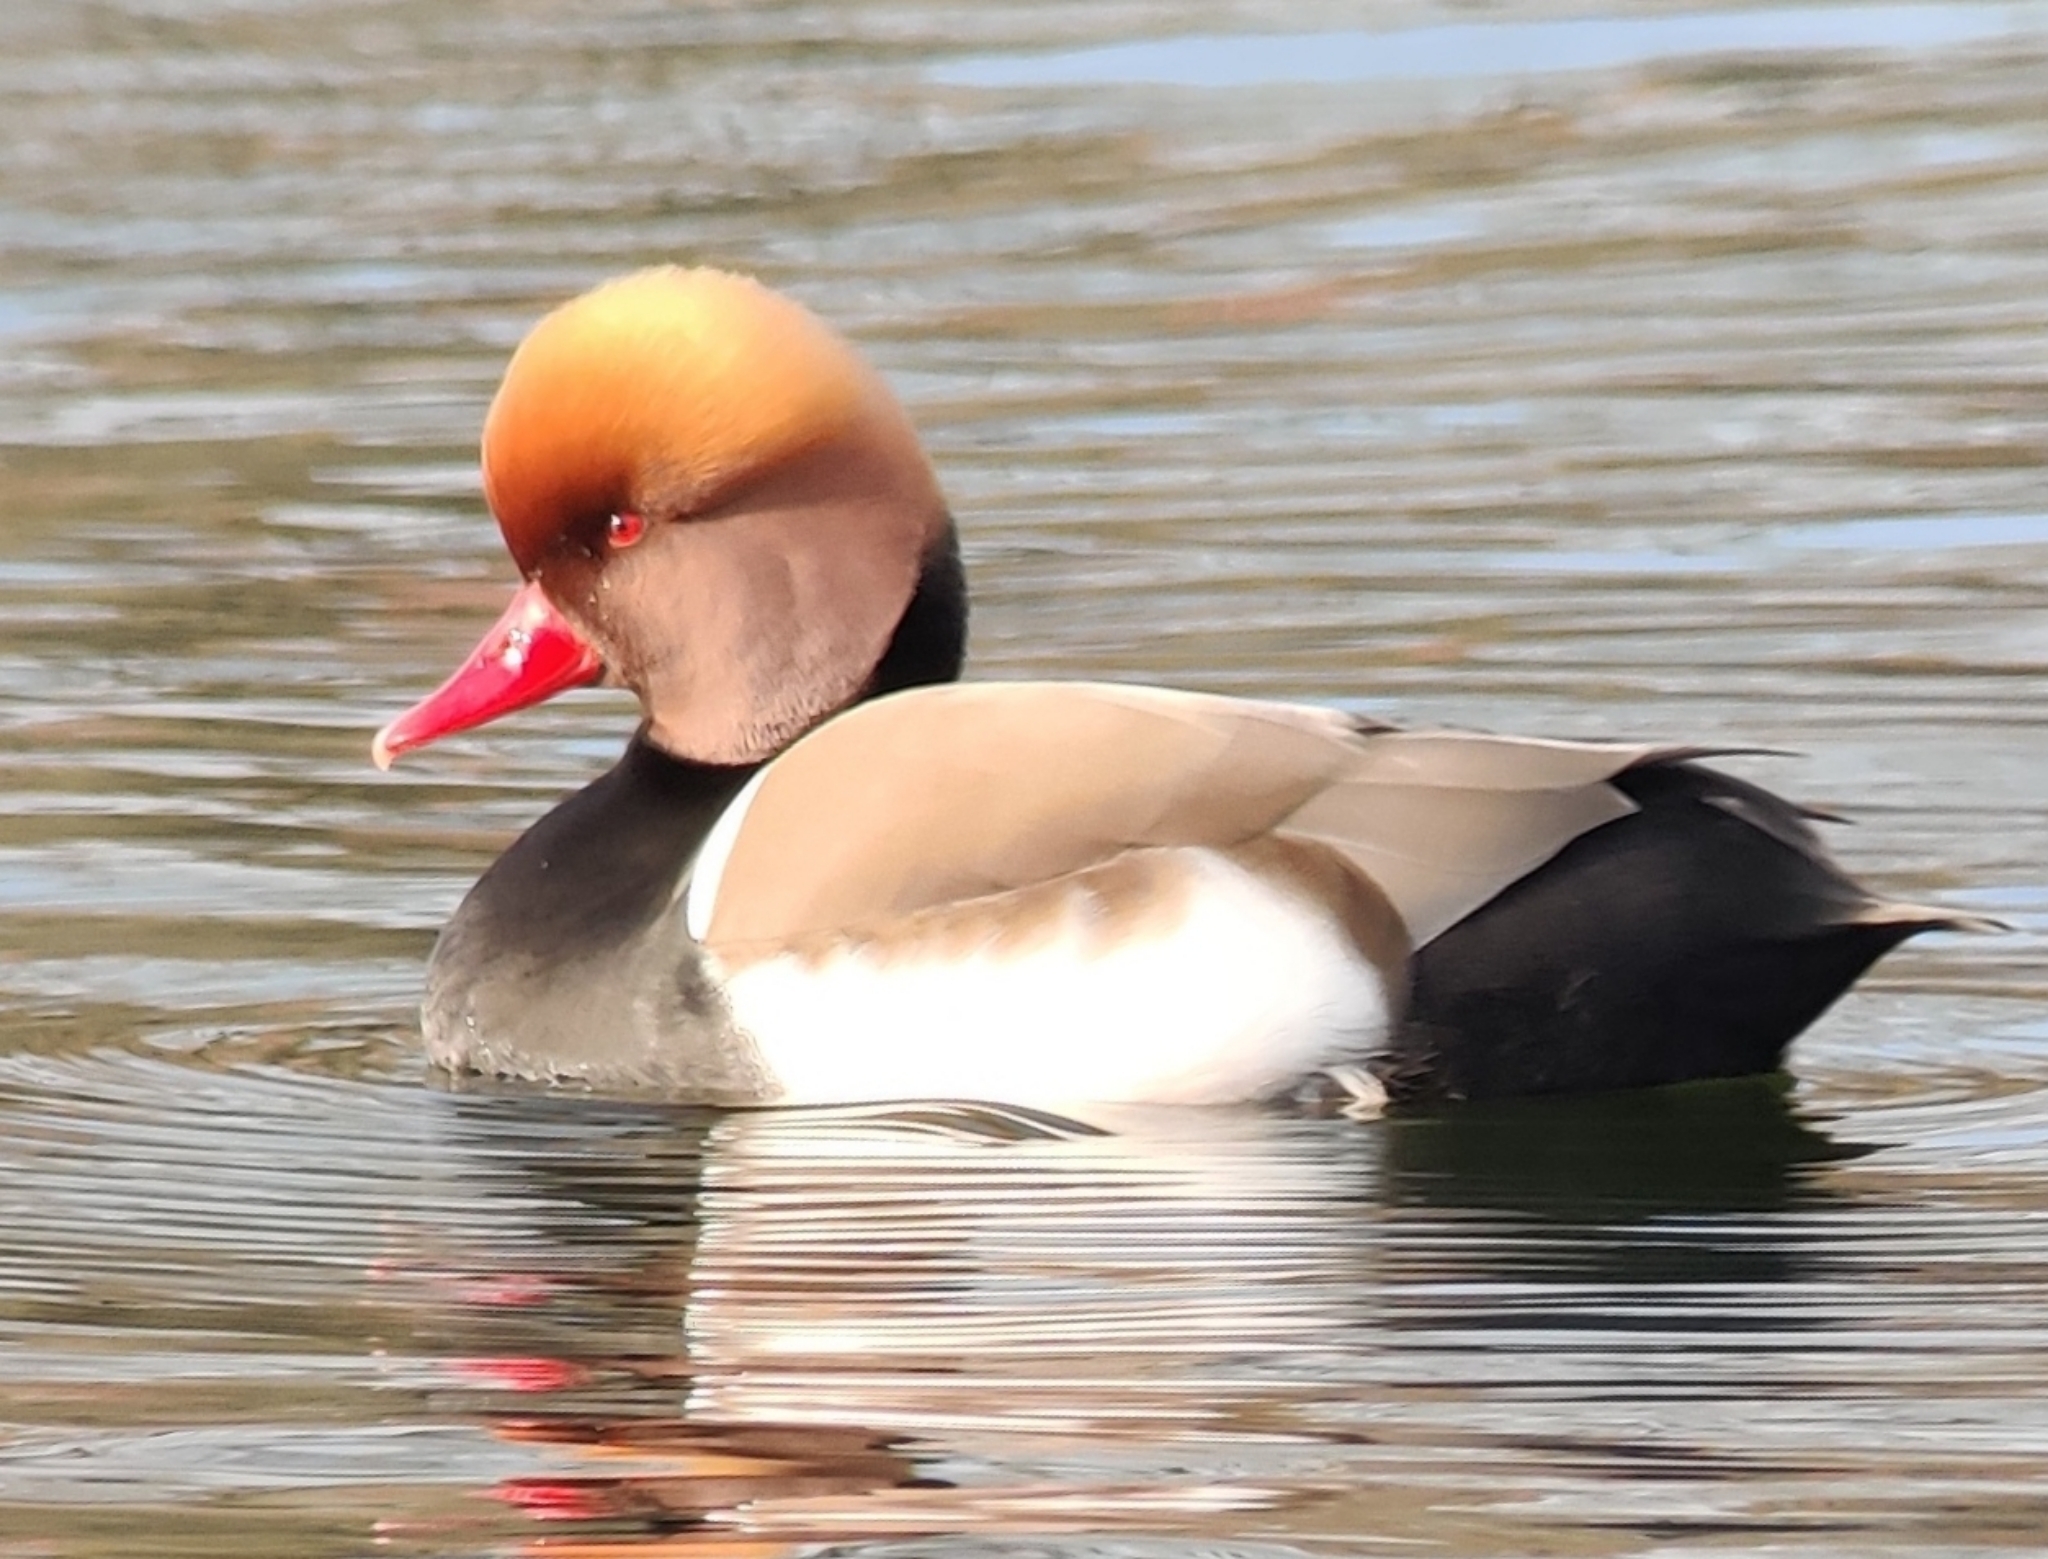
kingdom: Animalia
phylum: Chordata
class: Aves
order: Anseriformes
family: Anatidae
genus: Netta
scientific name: Netta rufina
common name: Red-crested pochard
